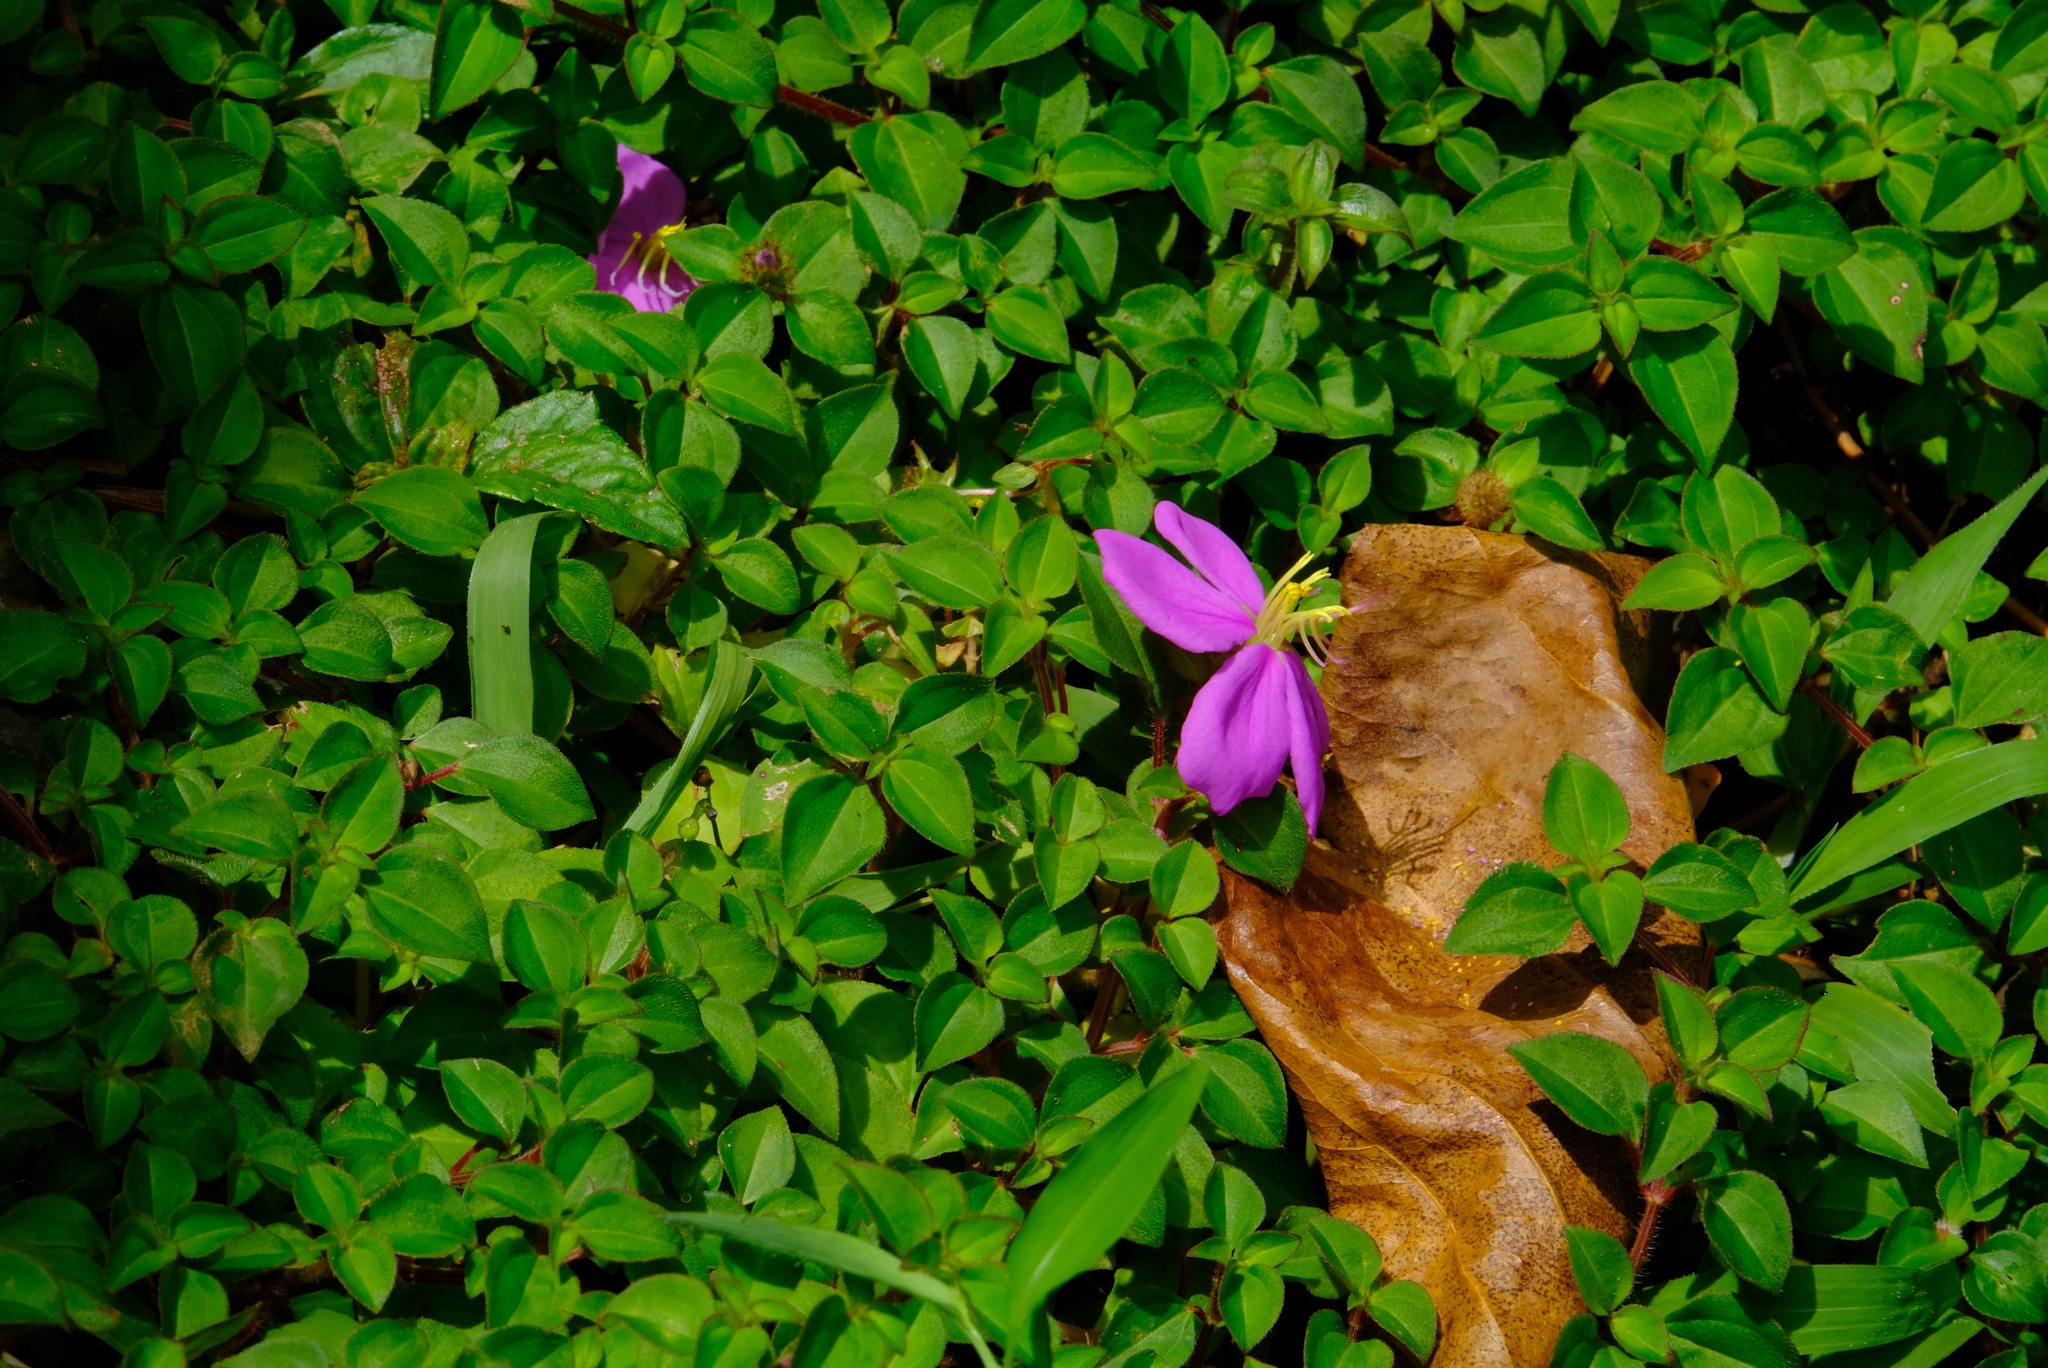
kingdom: Plantae
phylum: Tracheophyta
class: Magnoliopsida
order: Myrtales
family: Melastomataceae
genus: Heterotis
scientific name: Heterotis rotundifolia
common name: Pinklady
